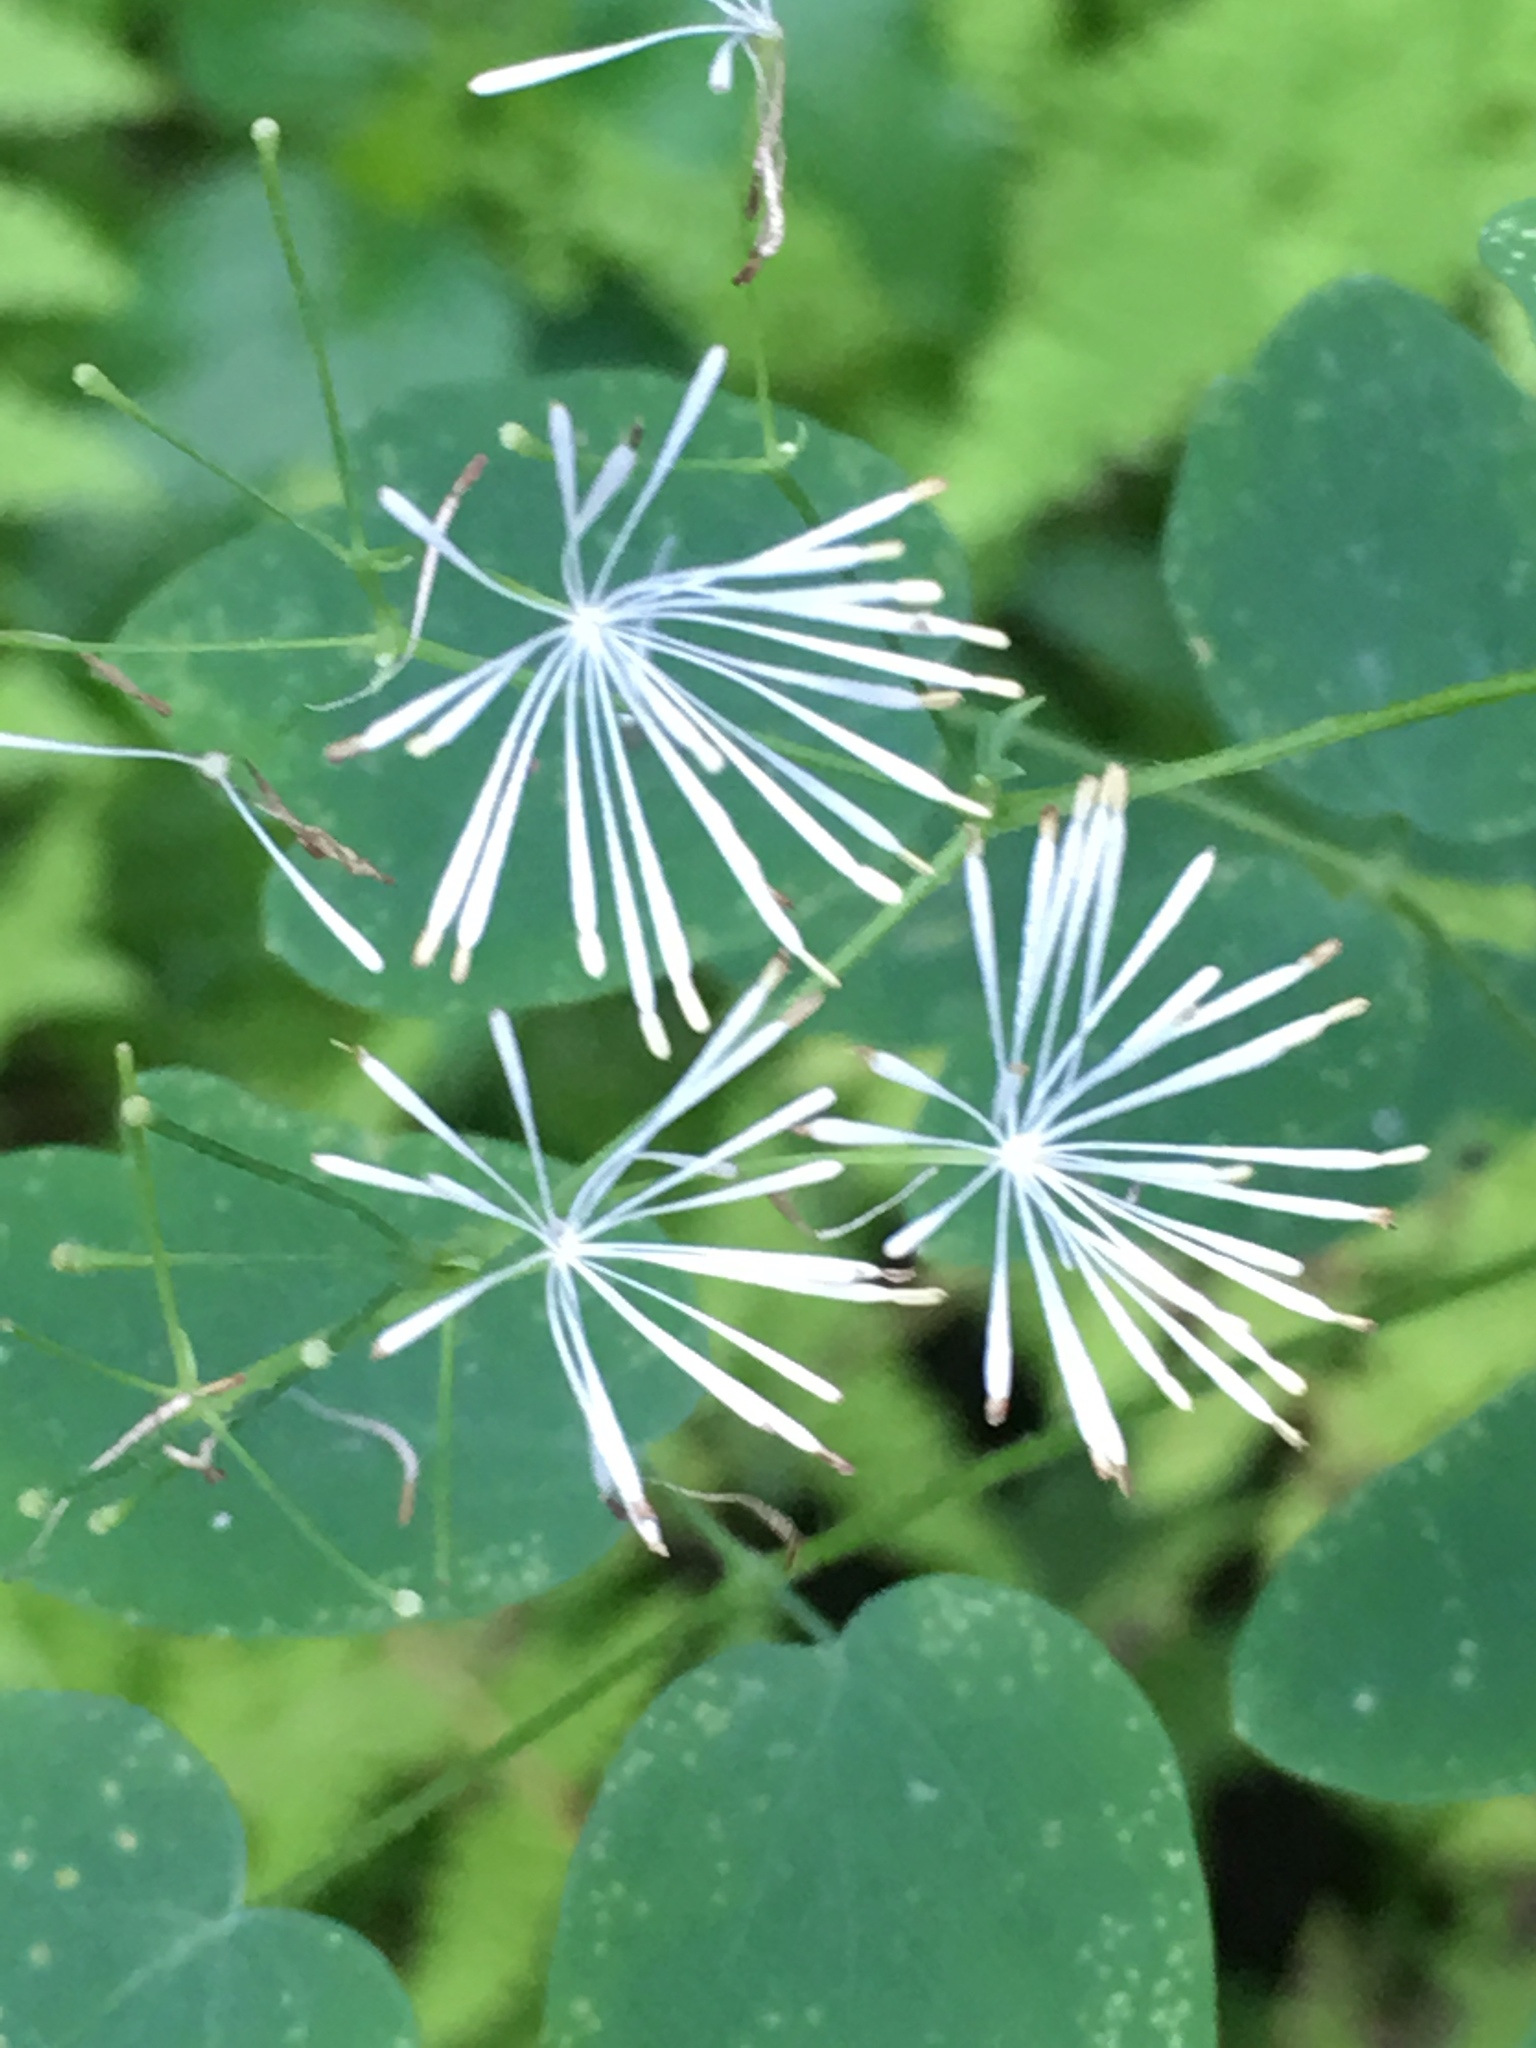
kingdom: Plantae
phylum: Tracheophyta
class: Magnoliopsida
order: Ranunculales
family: Ranunculaceae
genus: Thalictrum
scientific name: Thalictrum pubescens
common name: King-of-the-meadow
